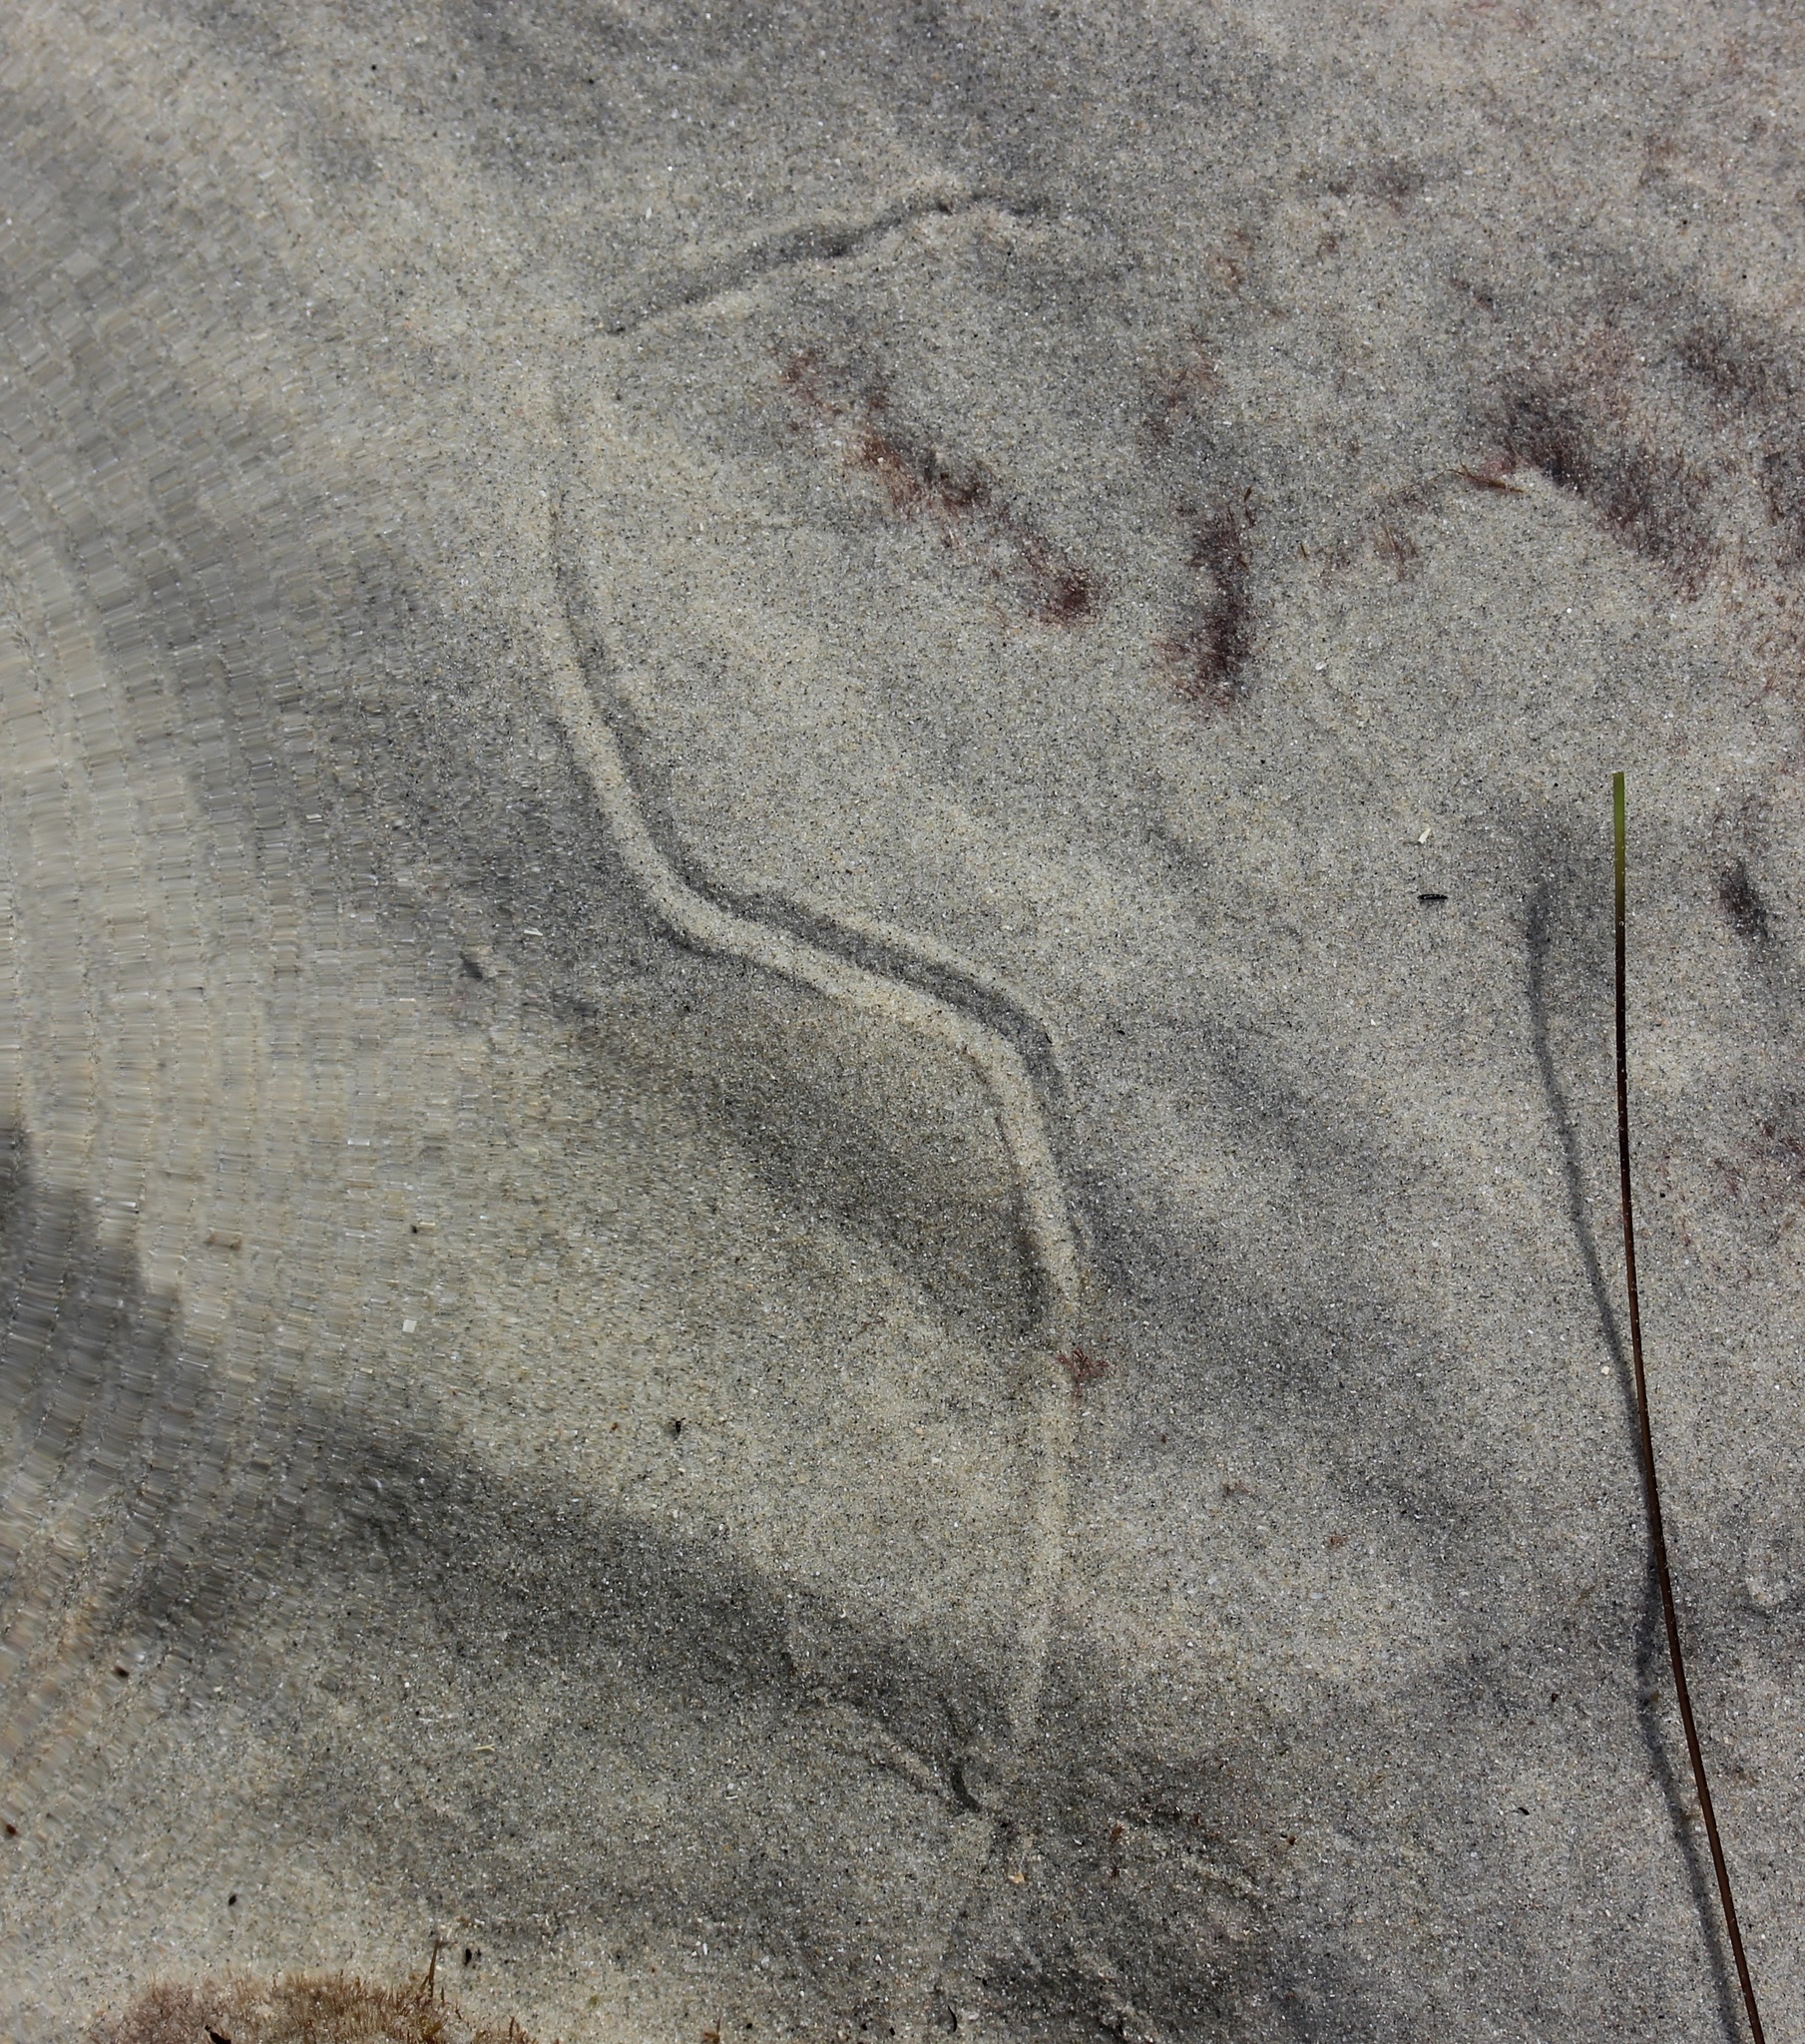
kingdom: Animalia
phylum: Mollusca
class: Gastropoda
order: Cephalaspidea
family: Haminoeidae
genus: Haloa
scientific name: Haloa japonica
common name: Japanese bubble snail
